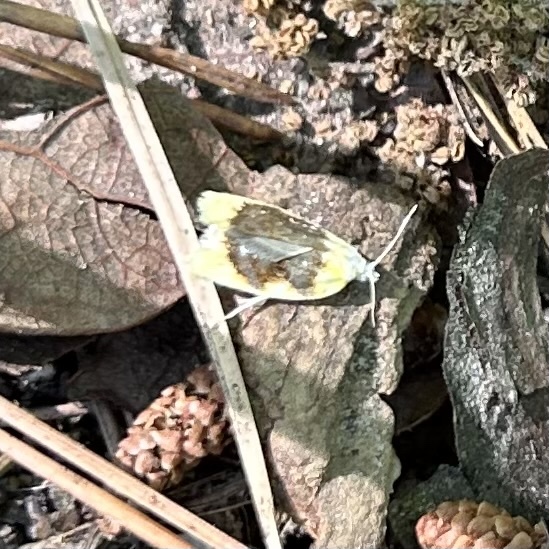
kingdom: Animalia
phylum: Arthropoda
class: Insecta
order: Lepidoptera
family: Tortricidae
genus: Acleris
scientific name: Acleris semipurpurana
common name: Oak leaftier moth
